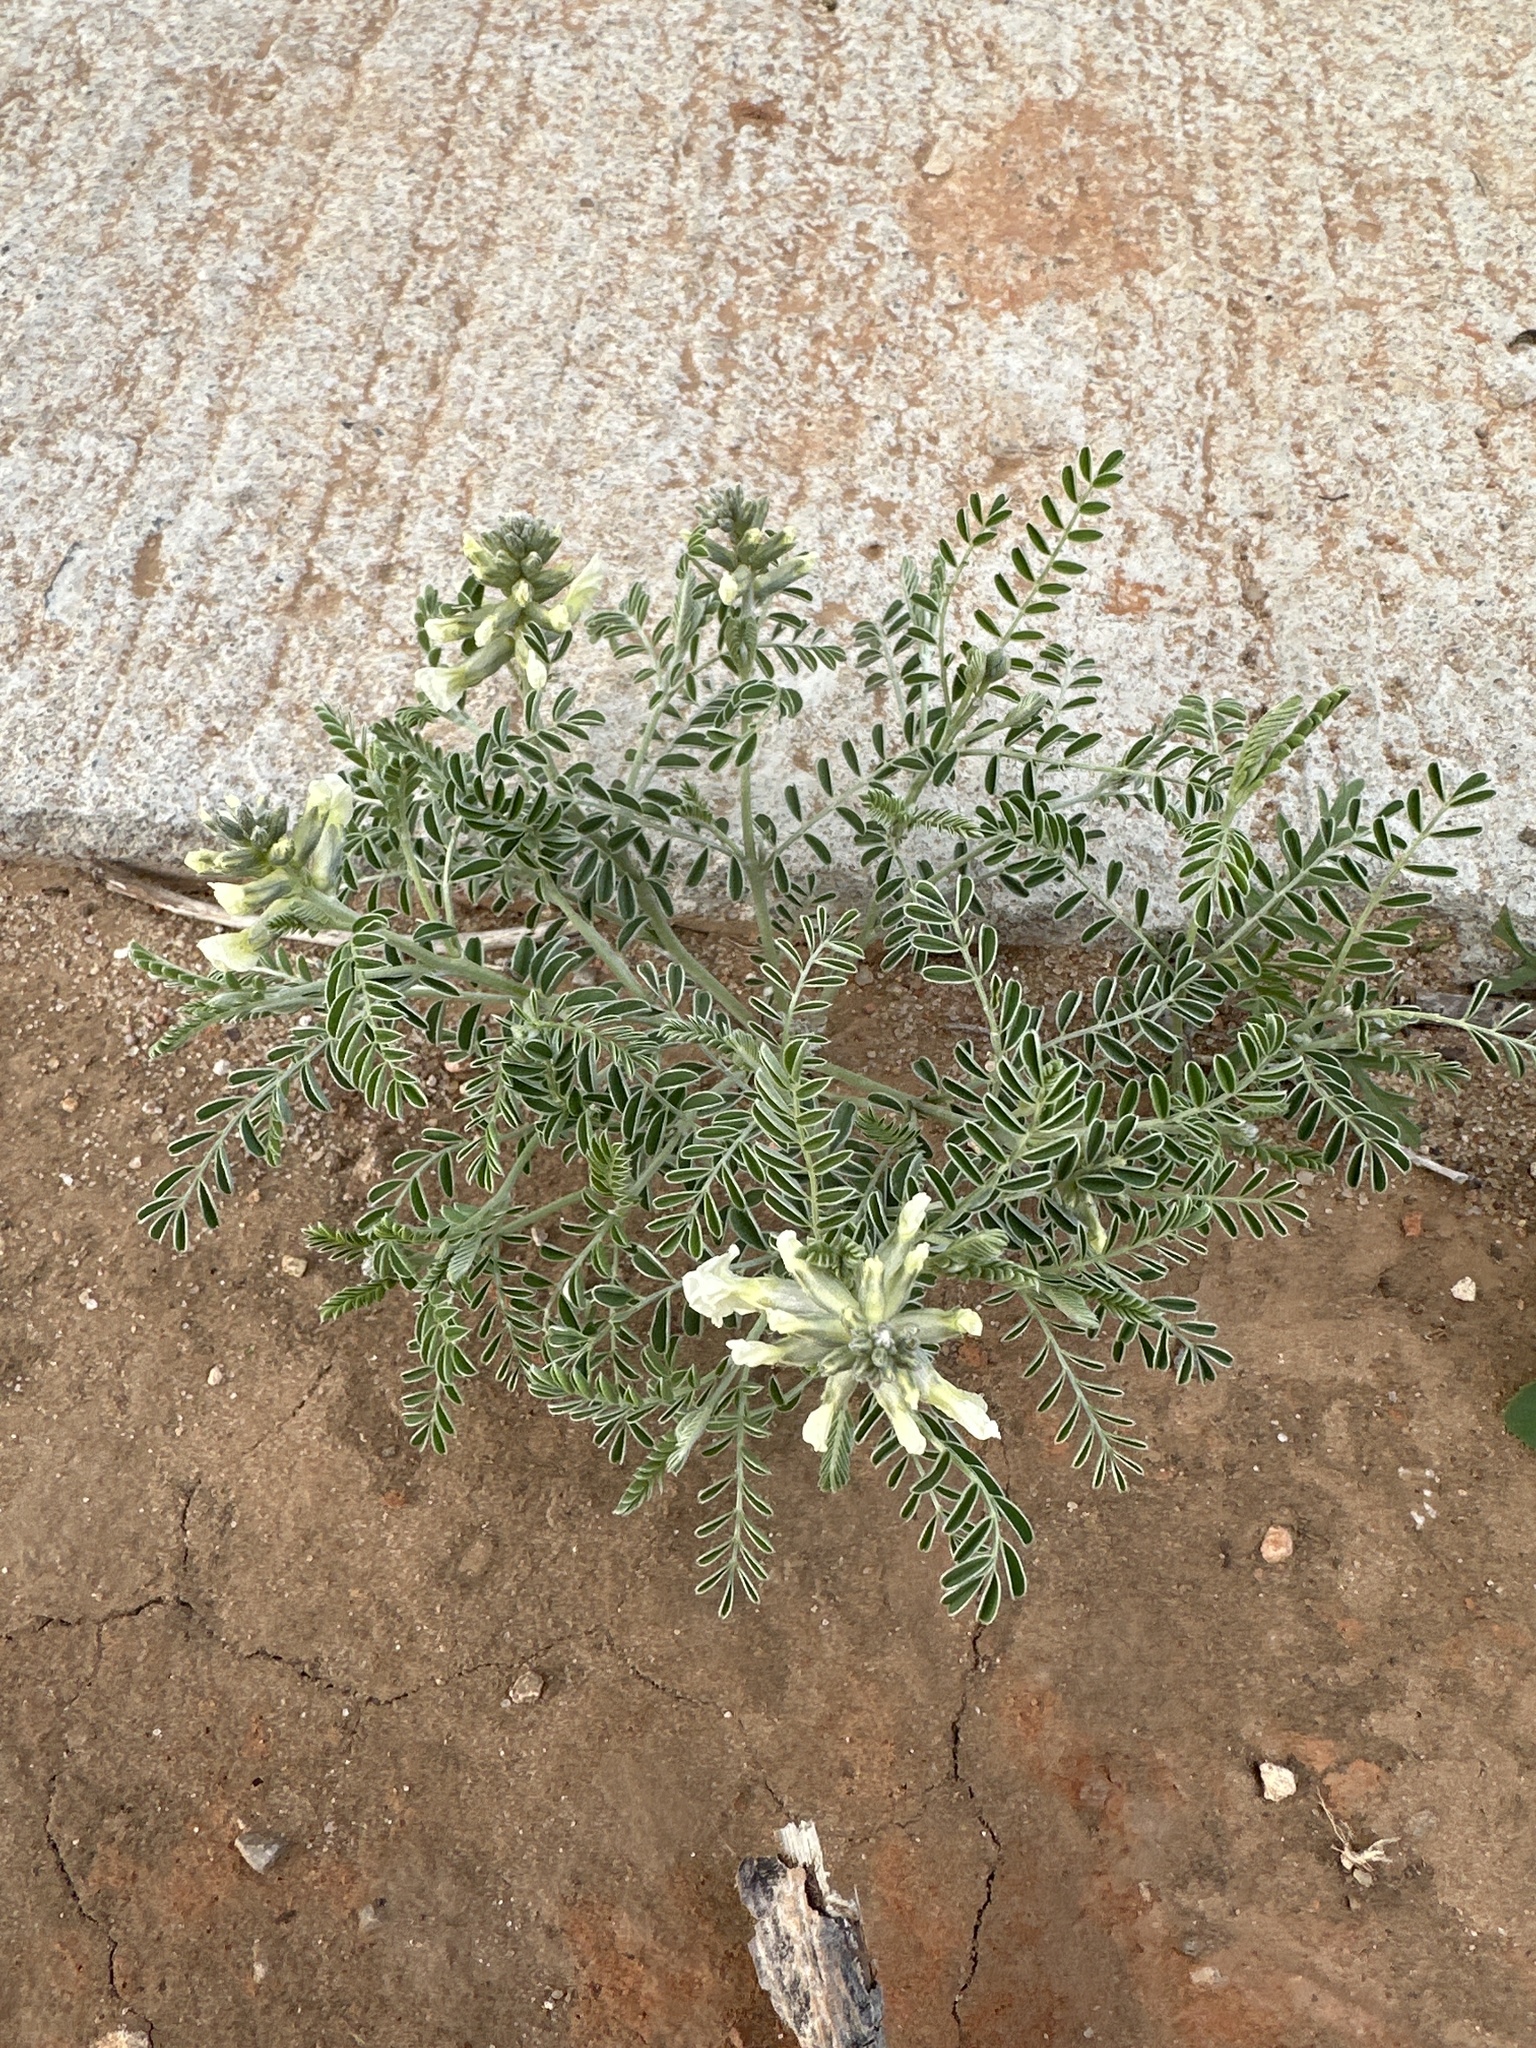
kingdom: Plantae
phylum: Tracheophyta
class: Magnoliopsida
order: Fabales
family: Fabaceae
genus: Sophora
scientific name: Sophora nuttalliana
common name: Silky sophora
